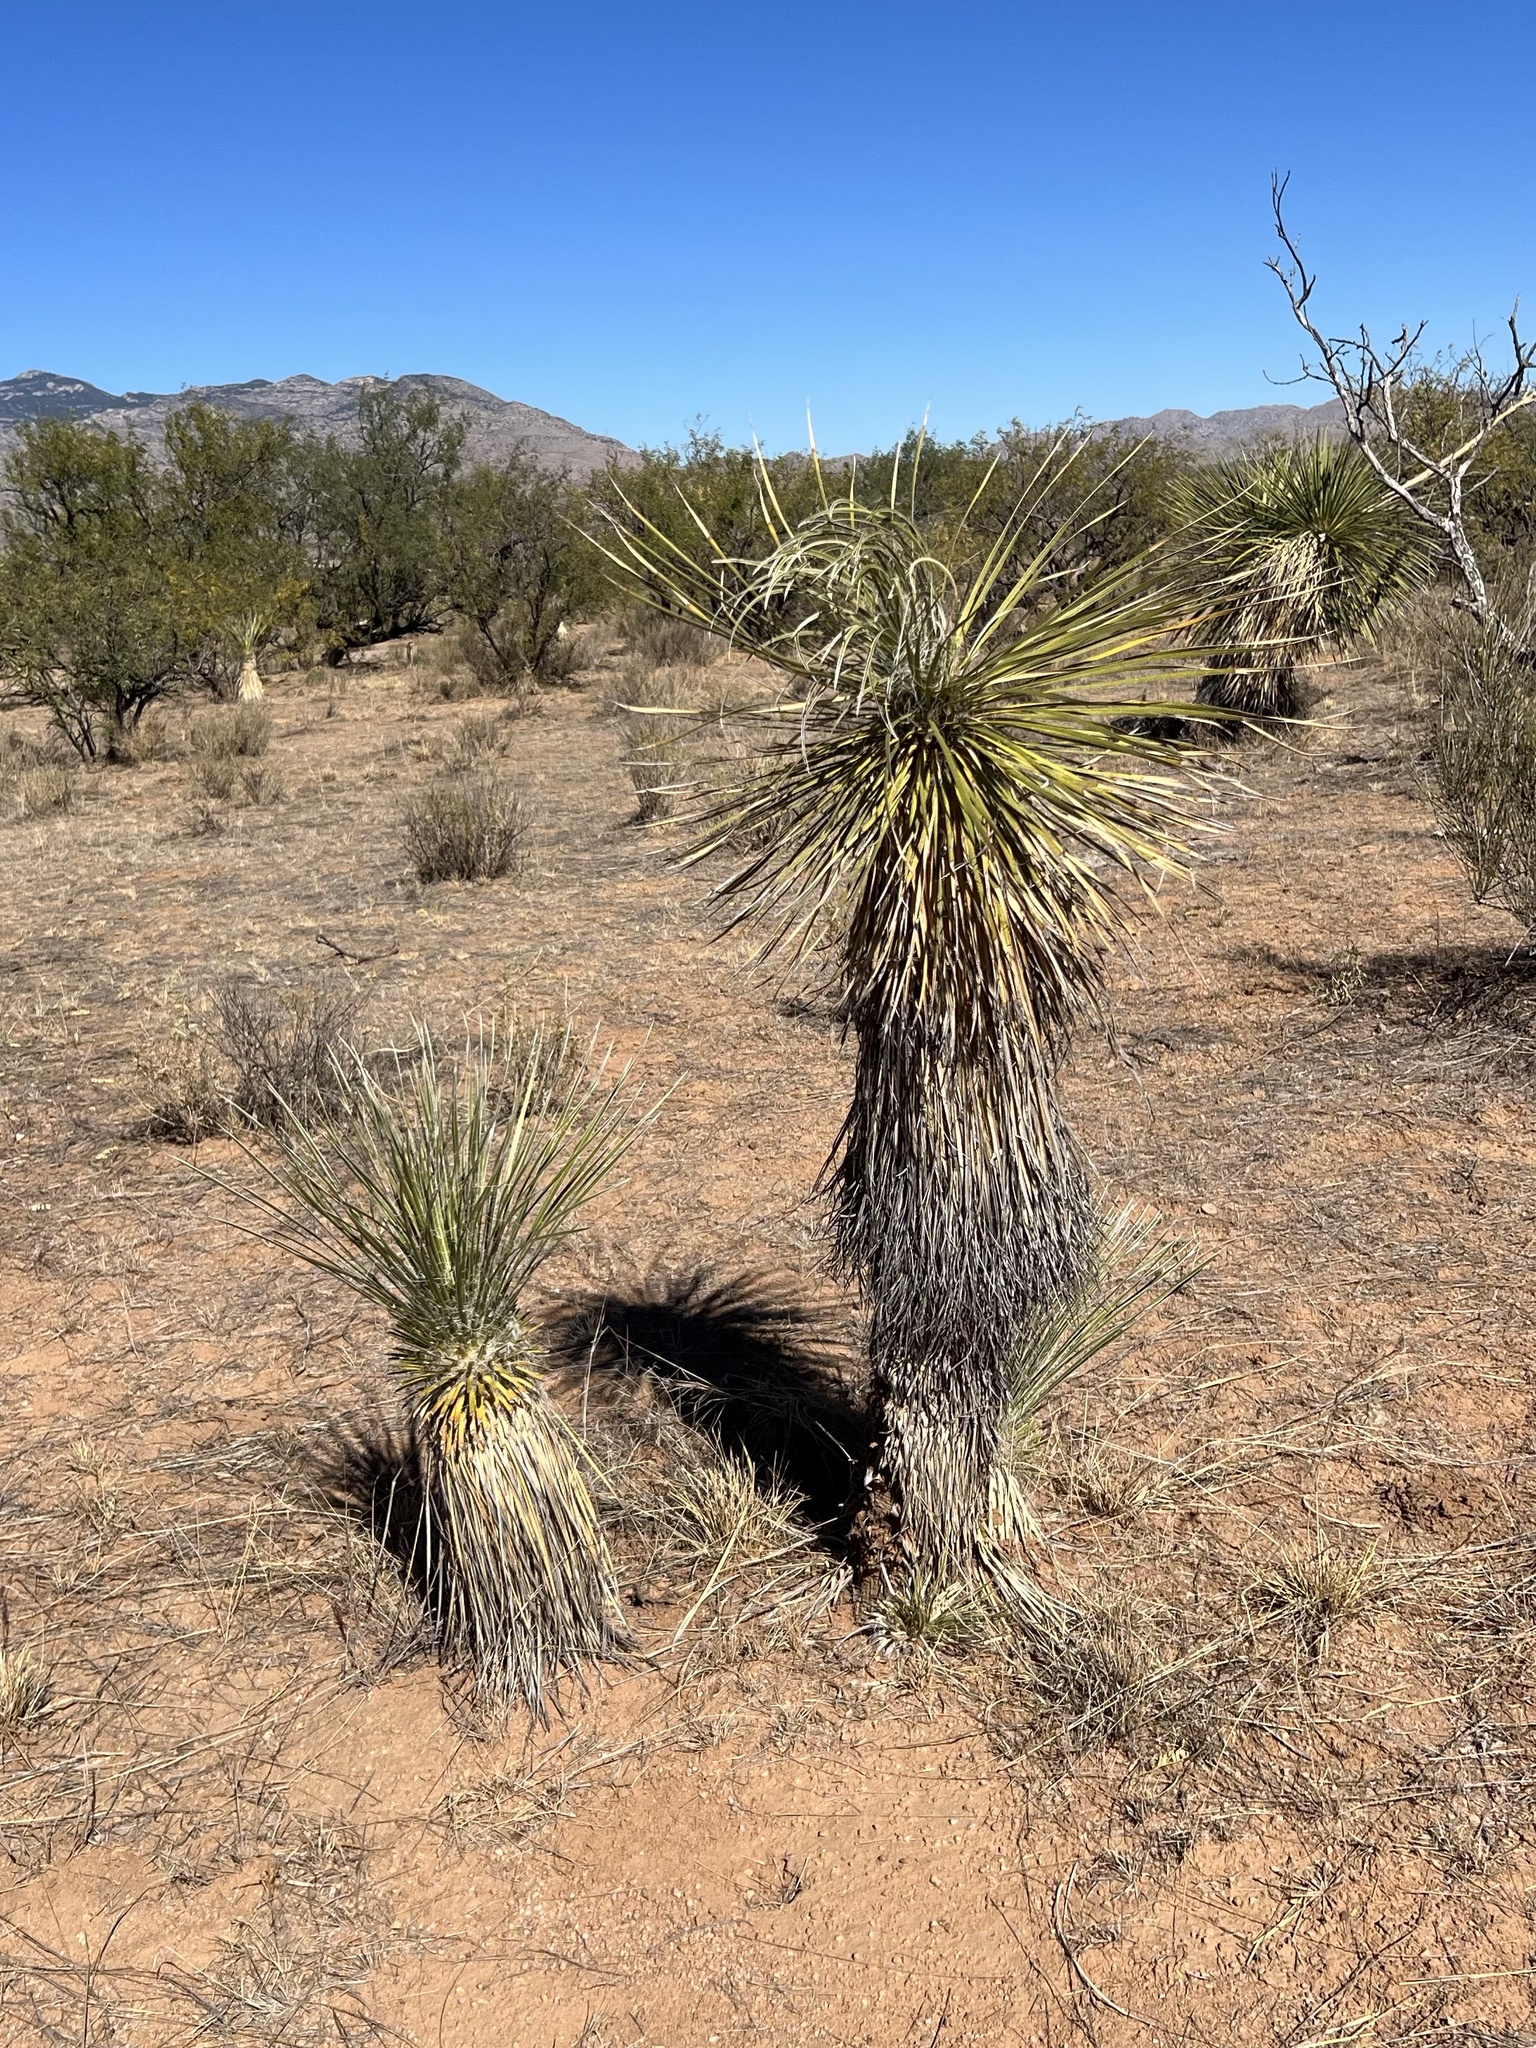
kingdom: Plantae
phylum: Tracheophyta
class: Liliopsida
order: Asparagales
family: Asparagaceae
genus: Yucca
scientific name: Yucca elata
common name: Palmella
